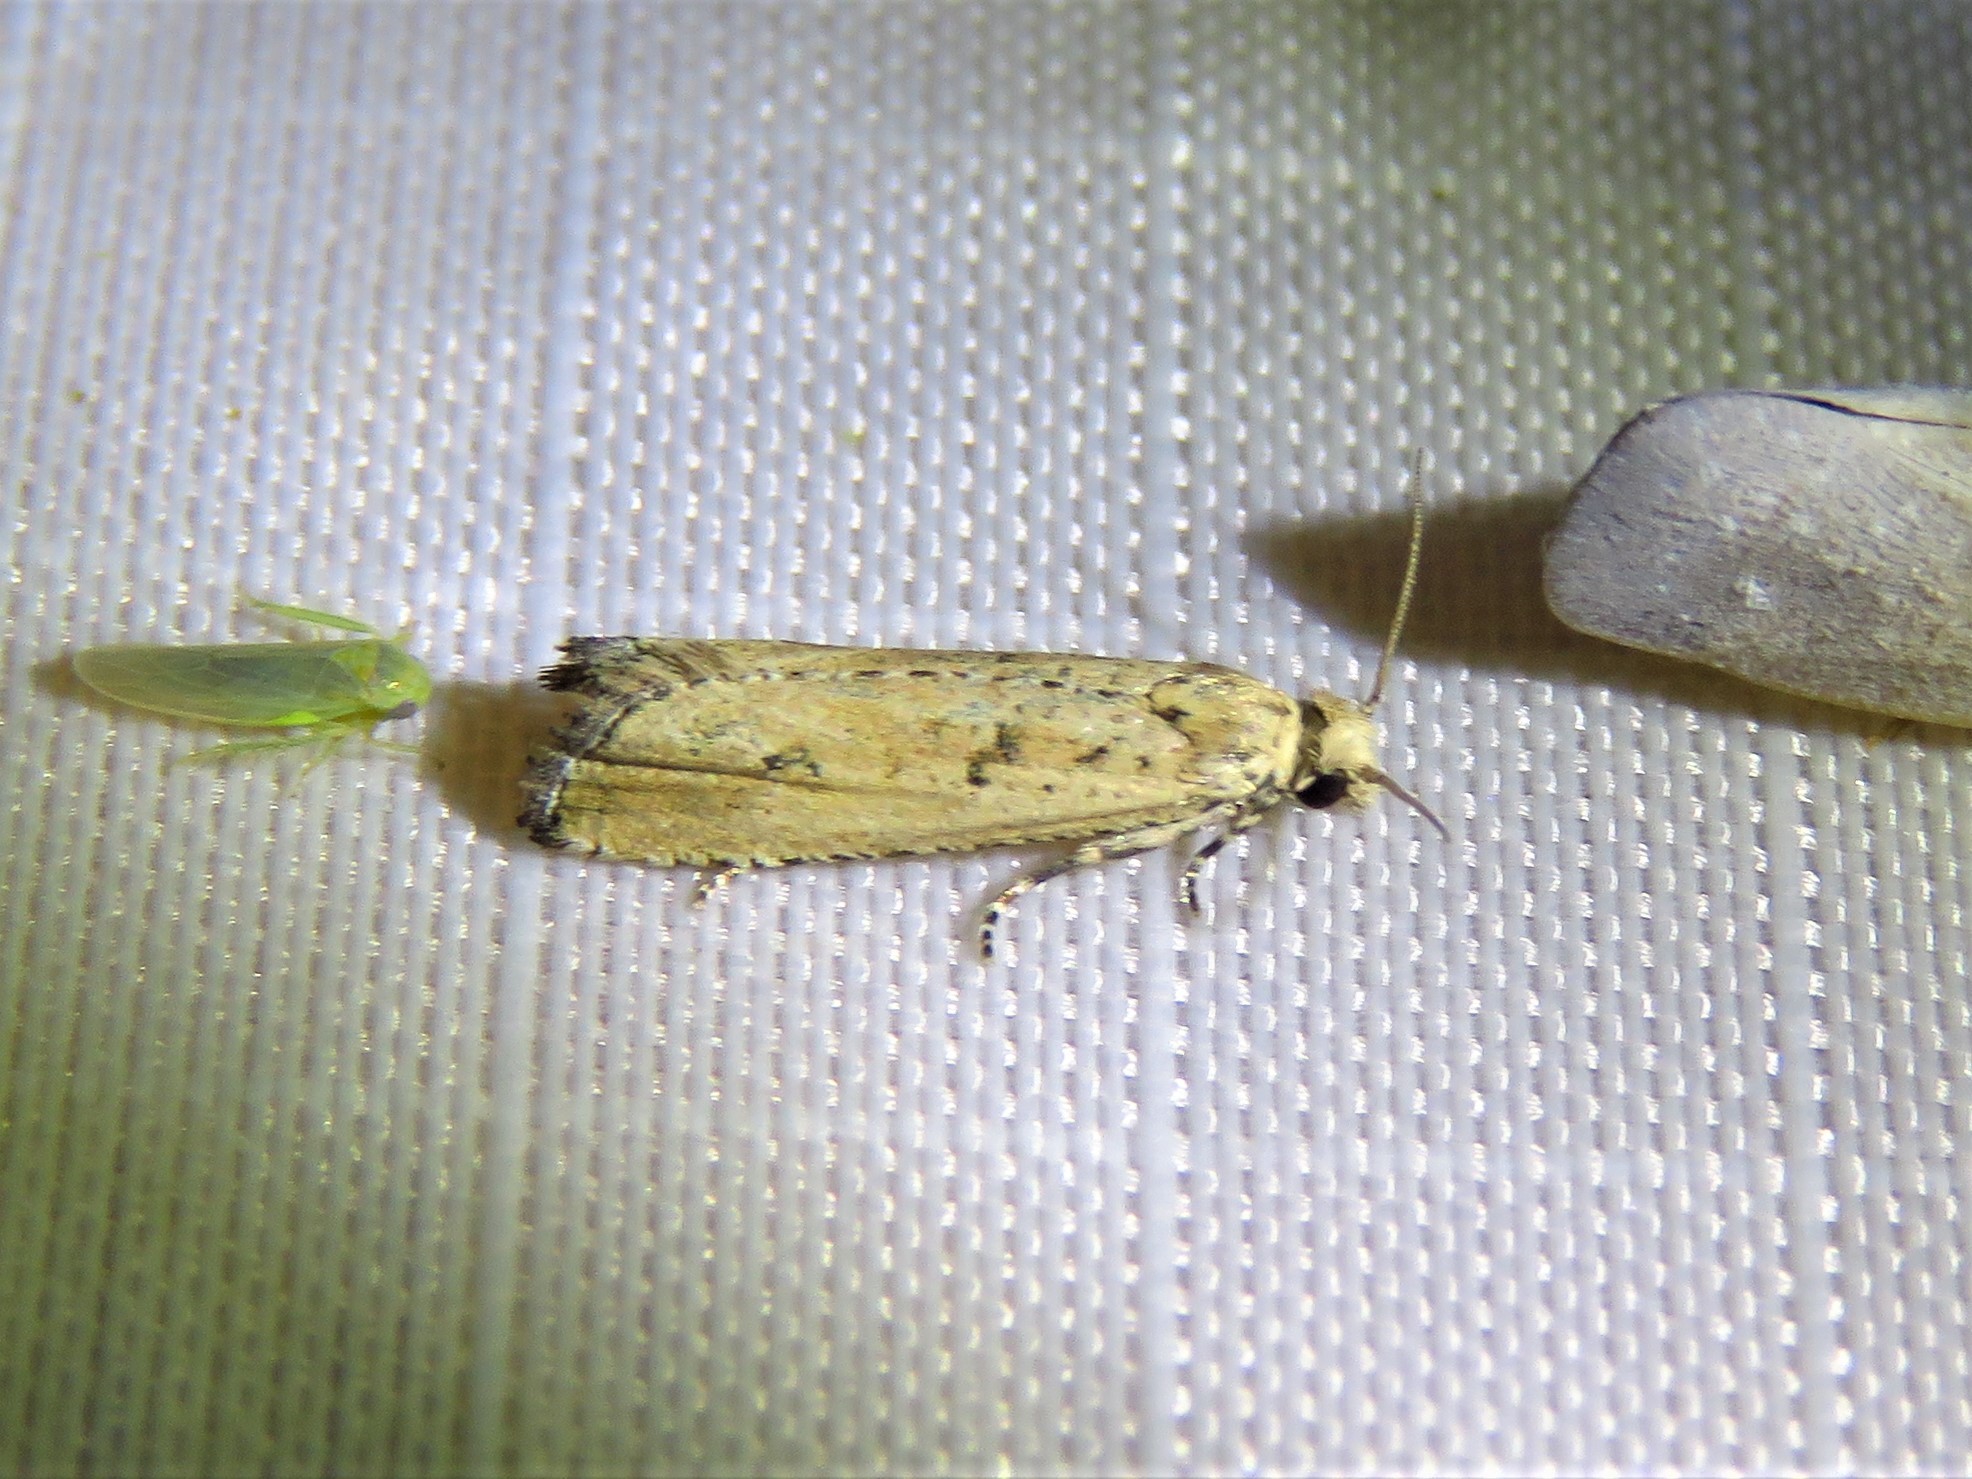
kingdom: Animalia
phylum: Arthropoda
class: Insecta
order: Lepidoptera
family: Tortricidae
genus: Bactra
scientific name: Bactra verutana
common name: Javelin moth
